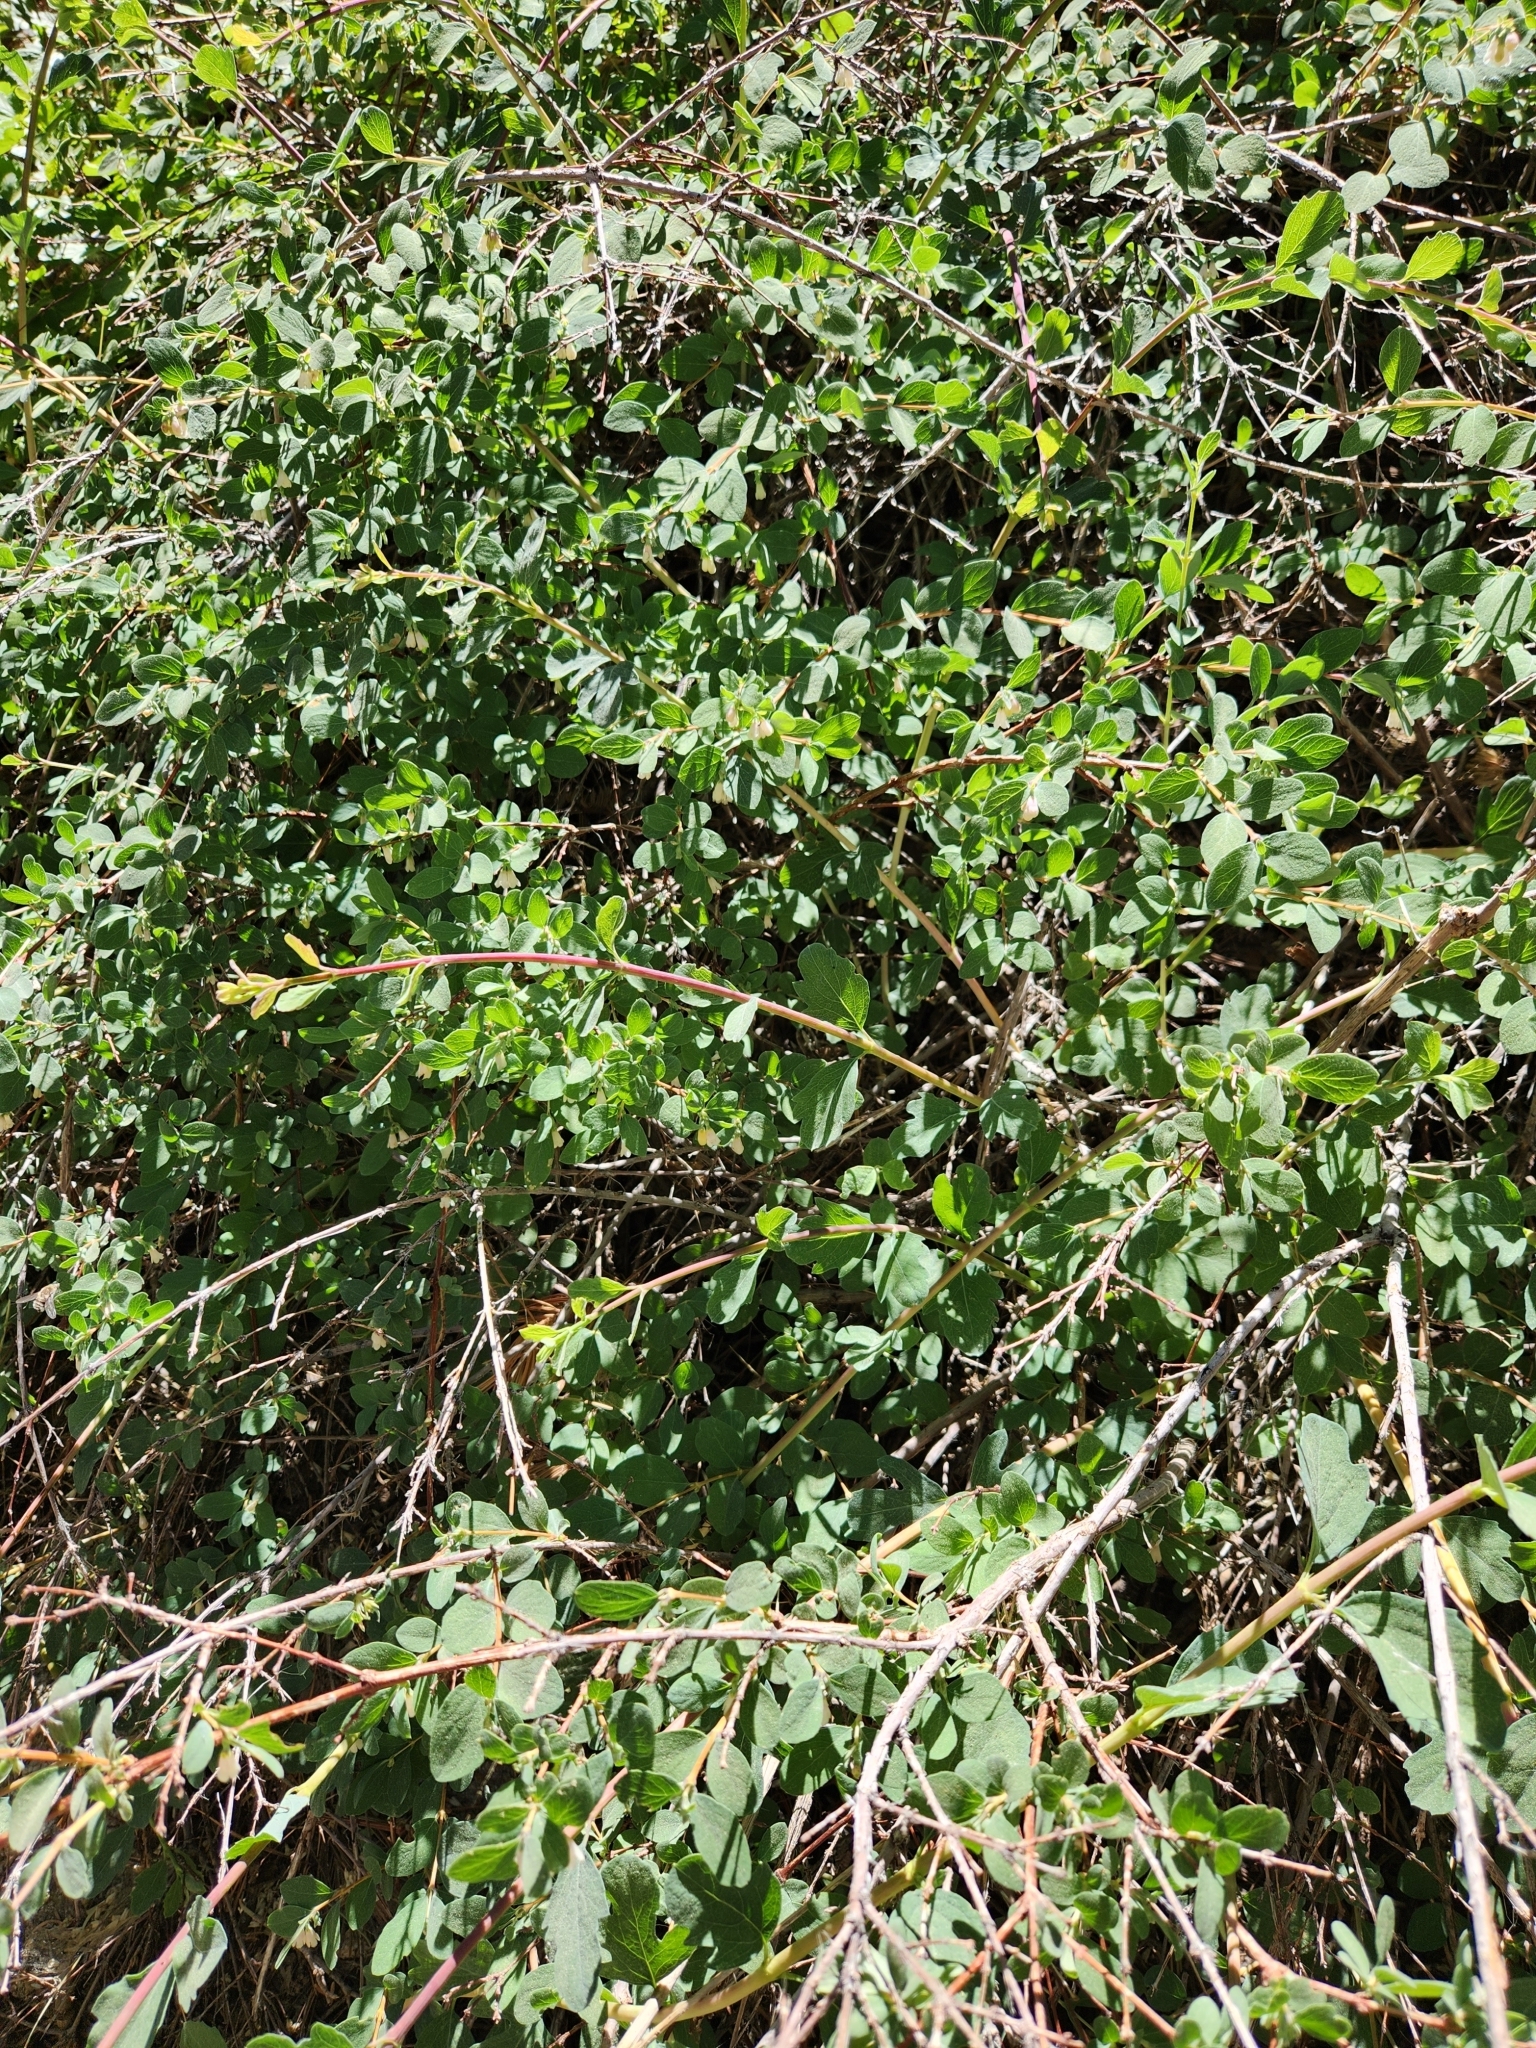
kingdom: Plantae
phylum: Tracheophyta
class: Magnoliopsida
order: Dipsacales
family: Caprifoliaceae
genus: Symphoricarpos
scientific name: Symphoricarpos parishii
